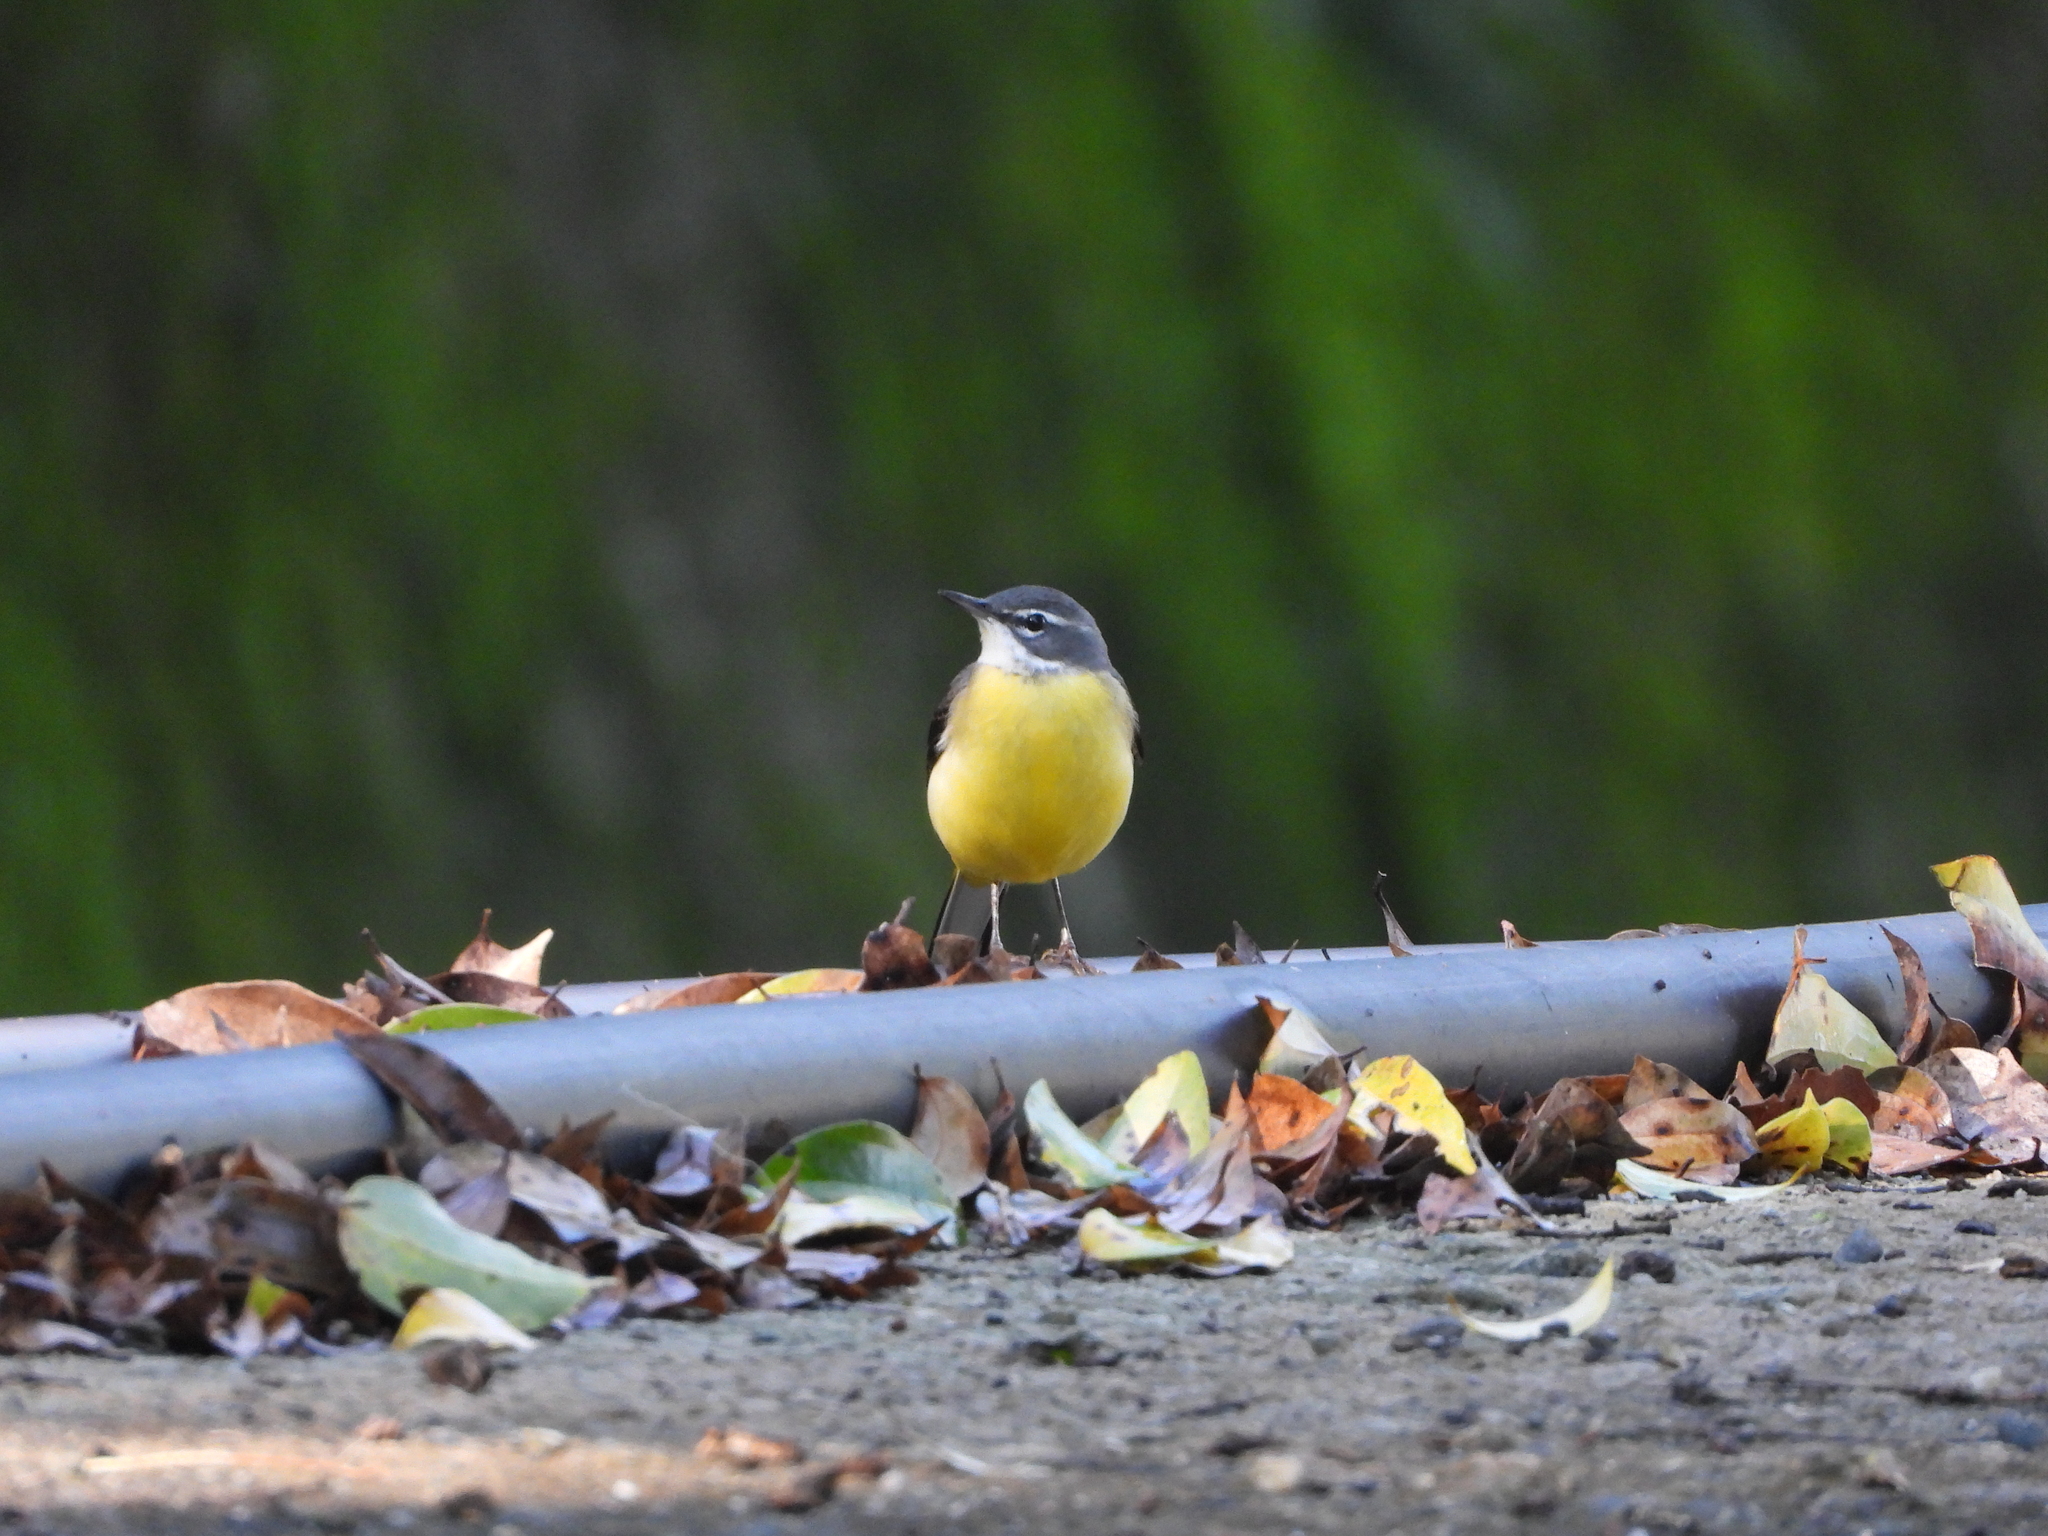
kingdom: Animalia
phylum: Chordata
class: Aves
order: Passeriformes
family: Motacillidae
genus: Motacilla
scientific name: Motacilla cinerea
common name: Grey wagtail
